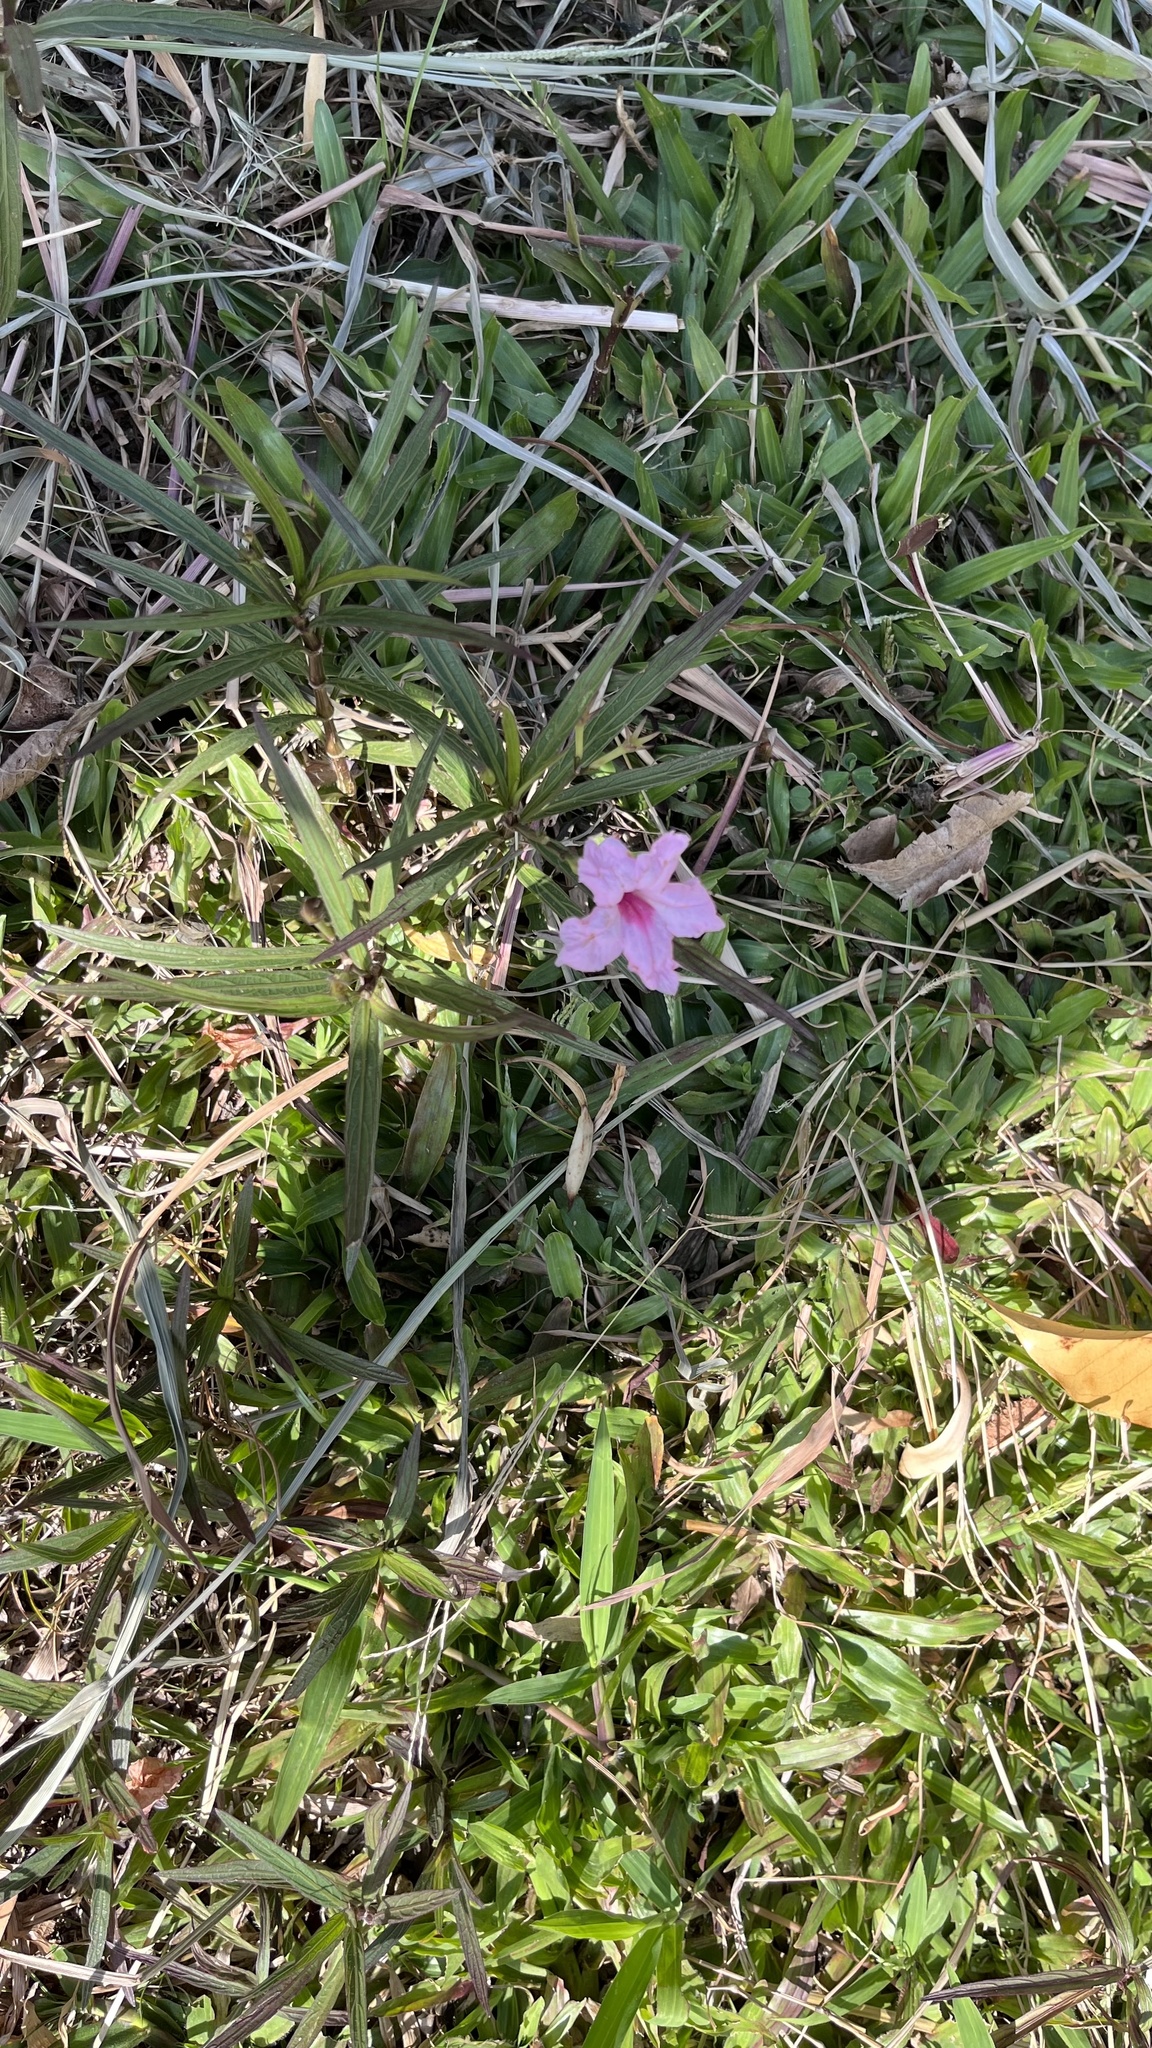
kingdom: Plantae
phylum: Tracheophyta
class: Magnoliopsida
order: Lamiales
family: Acanthaceae
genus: Ruellia
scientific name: Ruellia simplex
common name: Softseed wild petunia
